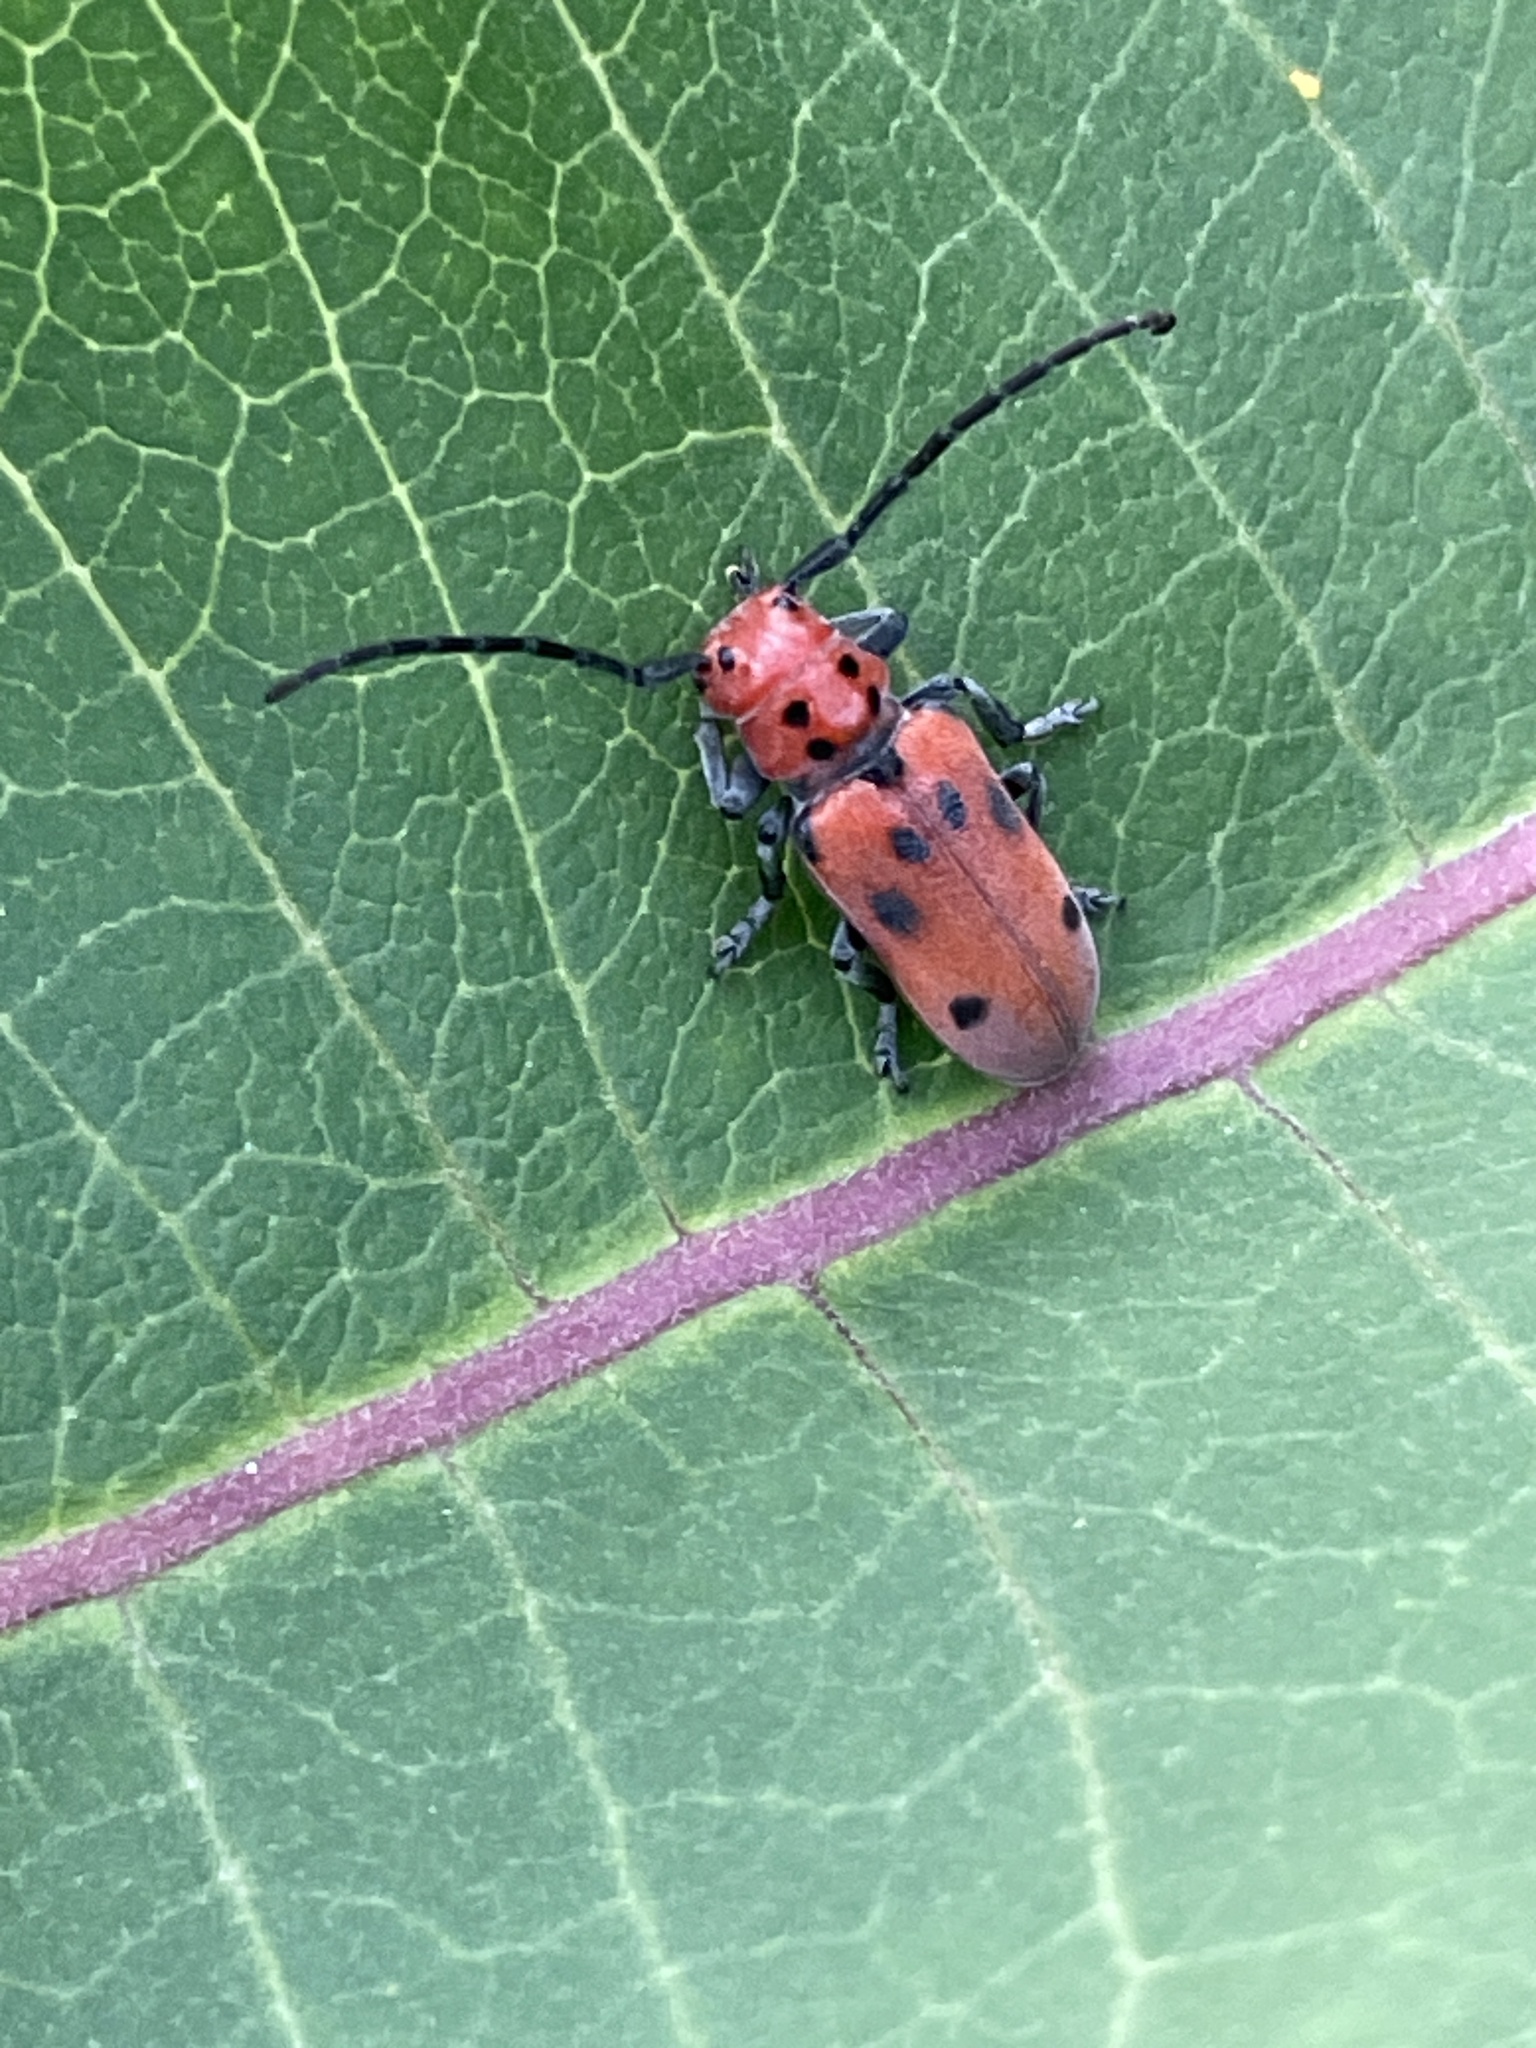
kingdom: Animalia
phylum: Arthropoda
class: Insecta
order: Coleoptera
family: Cerambycidae
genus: Tetraopes
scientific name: Tetraopes tetrophthalmus
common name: Red milkweed beetle
